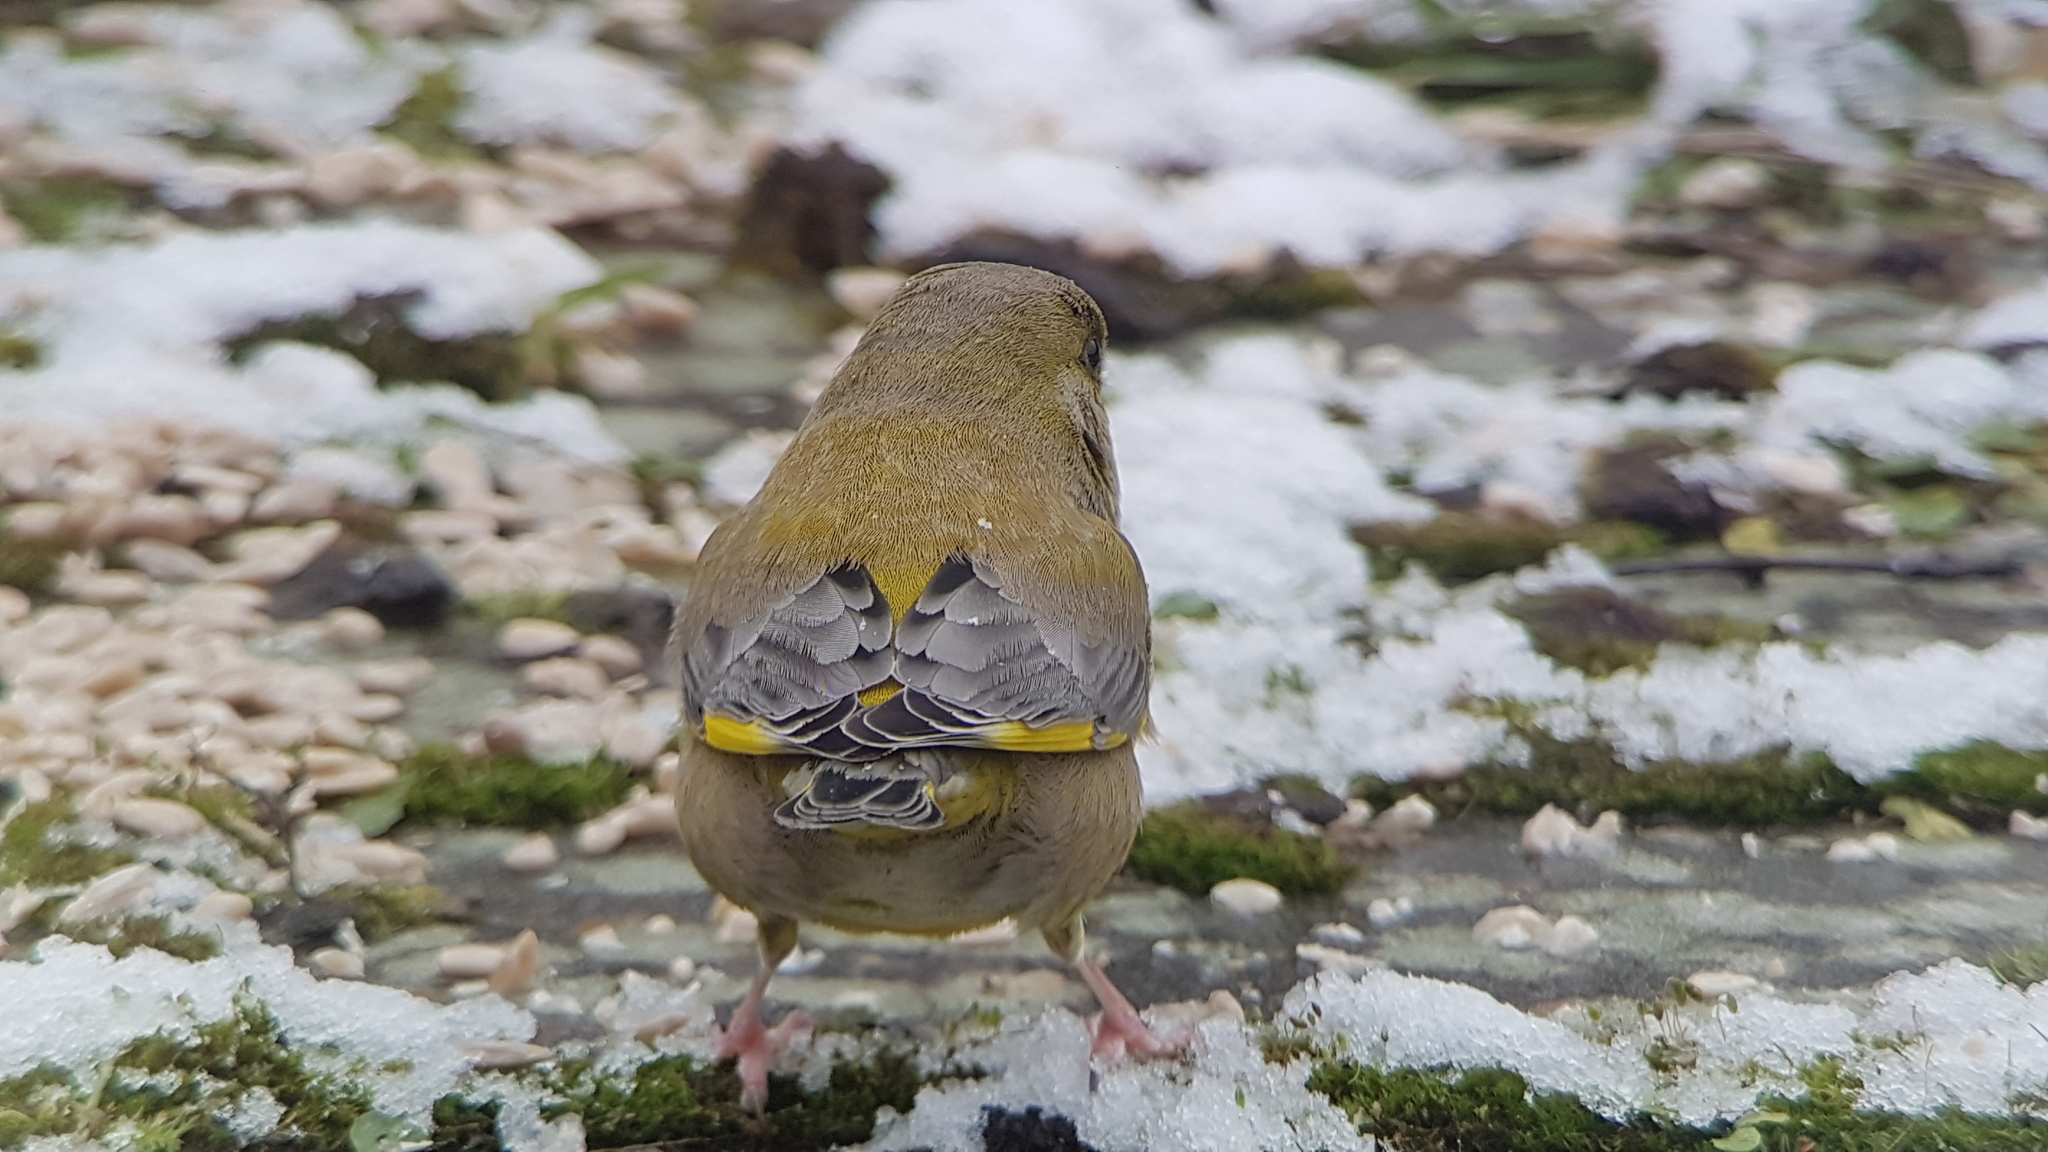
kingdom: Plantae
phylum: Tracheophyta
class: Liliopsida
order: Poales
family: Poaceae
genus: Chloris
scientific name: Chloris chloris
